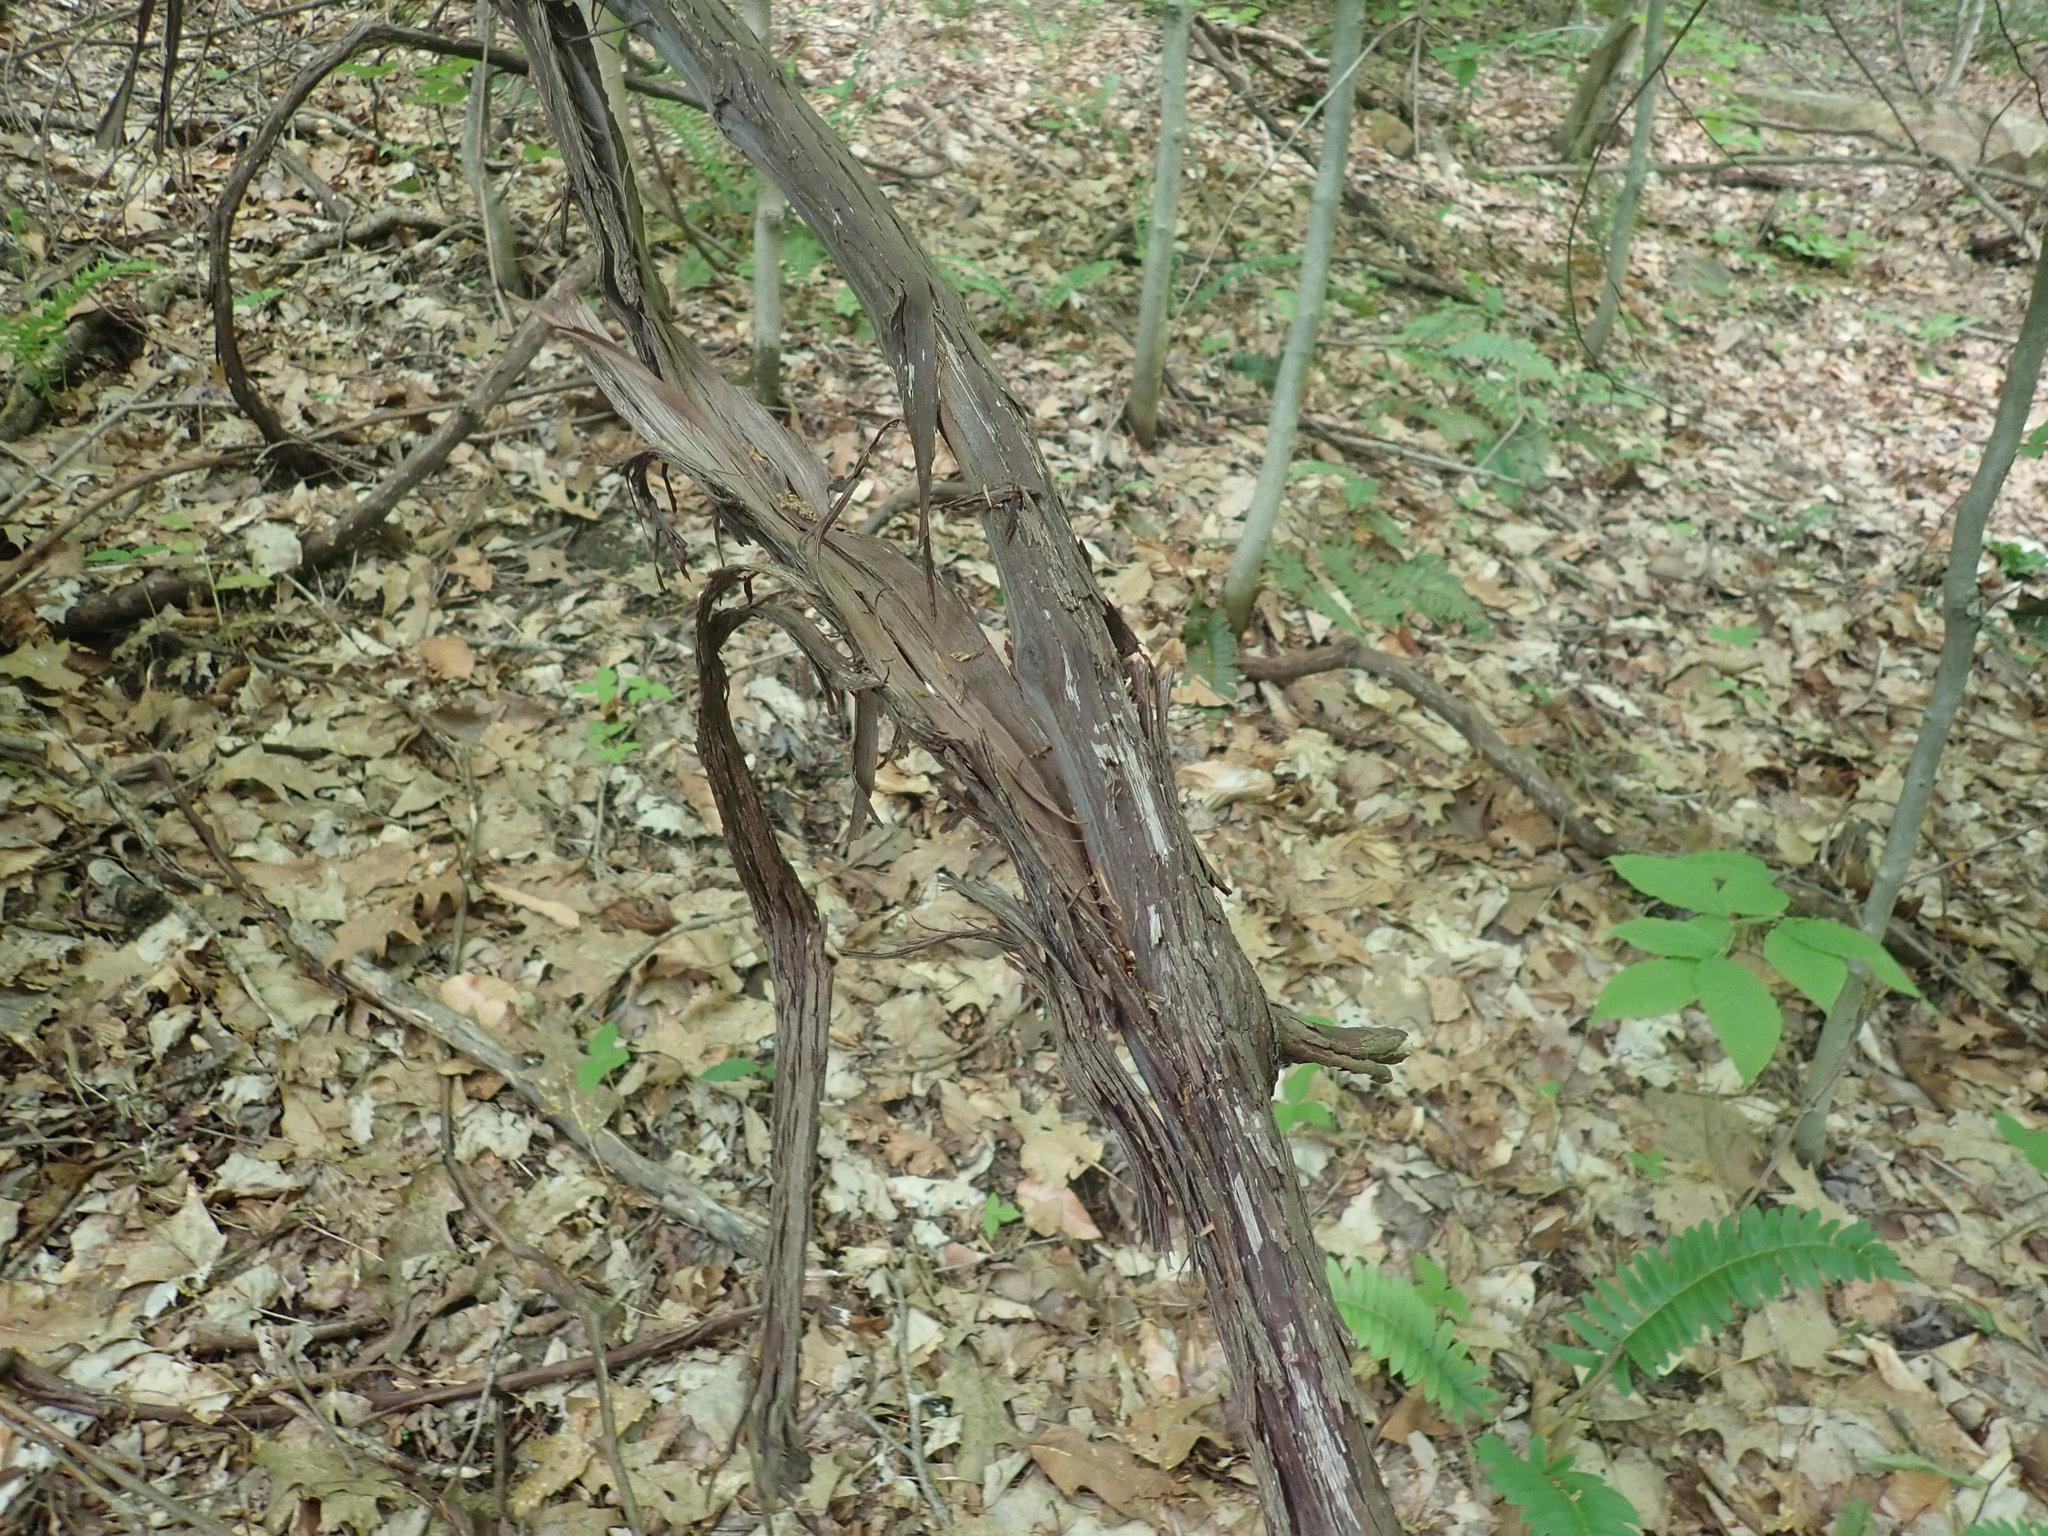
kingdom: Plantae
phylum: Tracheophyta
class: Magnoliopsida
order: Vitales
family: Vitaceae
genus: Vitis
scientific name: Vitis
